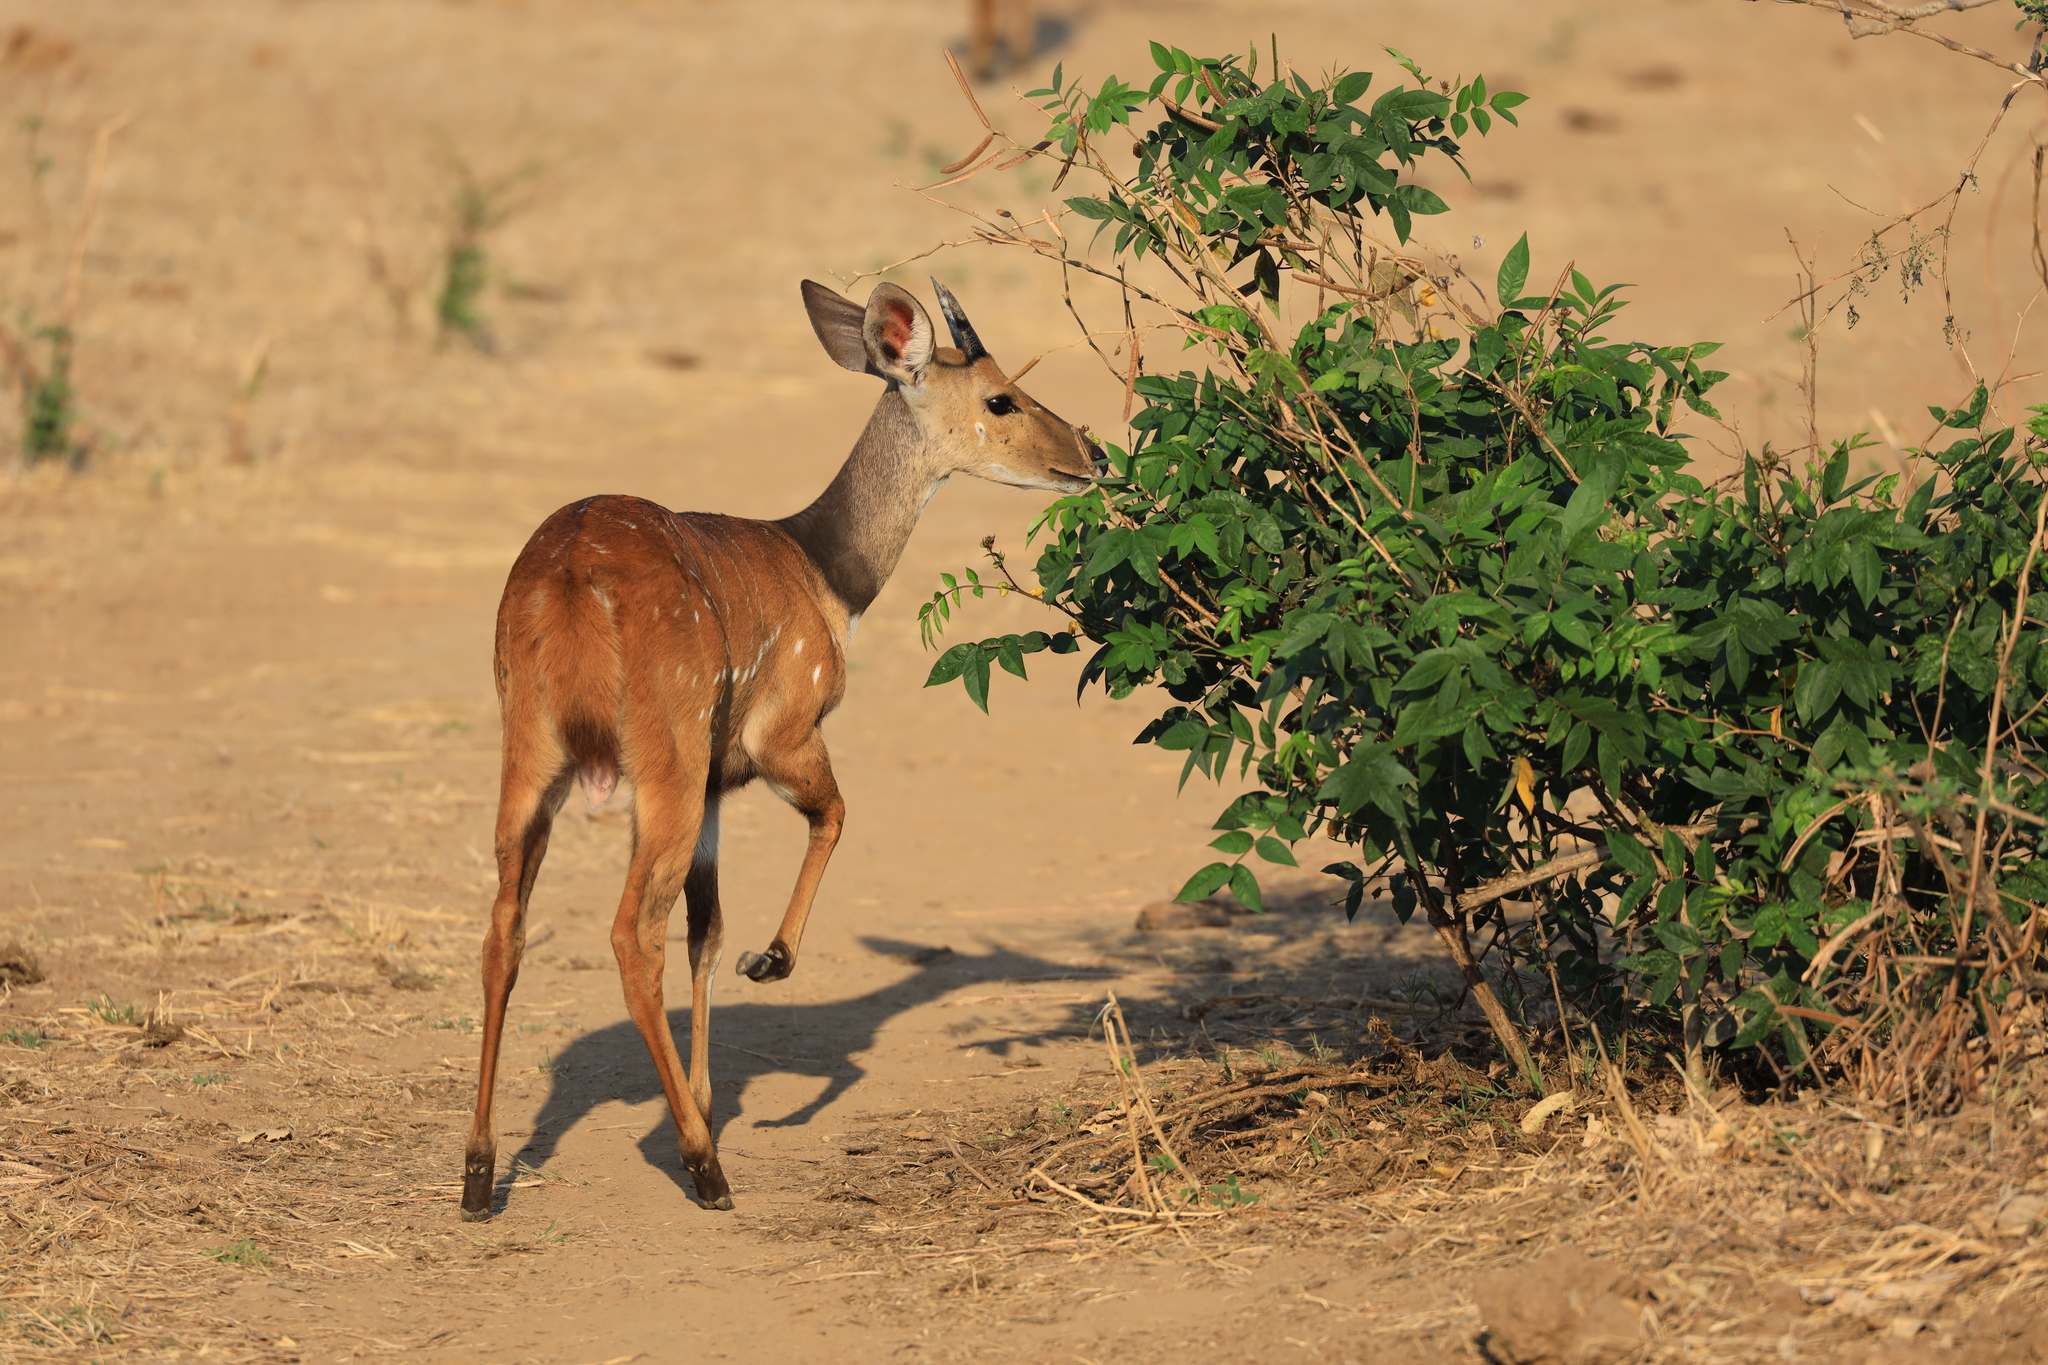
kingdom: Animalia
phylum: Chordata
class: Mammalia
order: Artiodactyla
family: Bovidae
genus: Tragelaphus
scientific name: Tragelaphus scriptus
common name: Bushbuck
